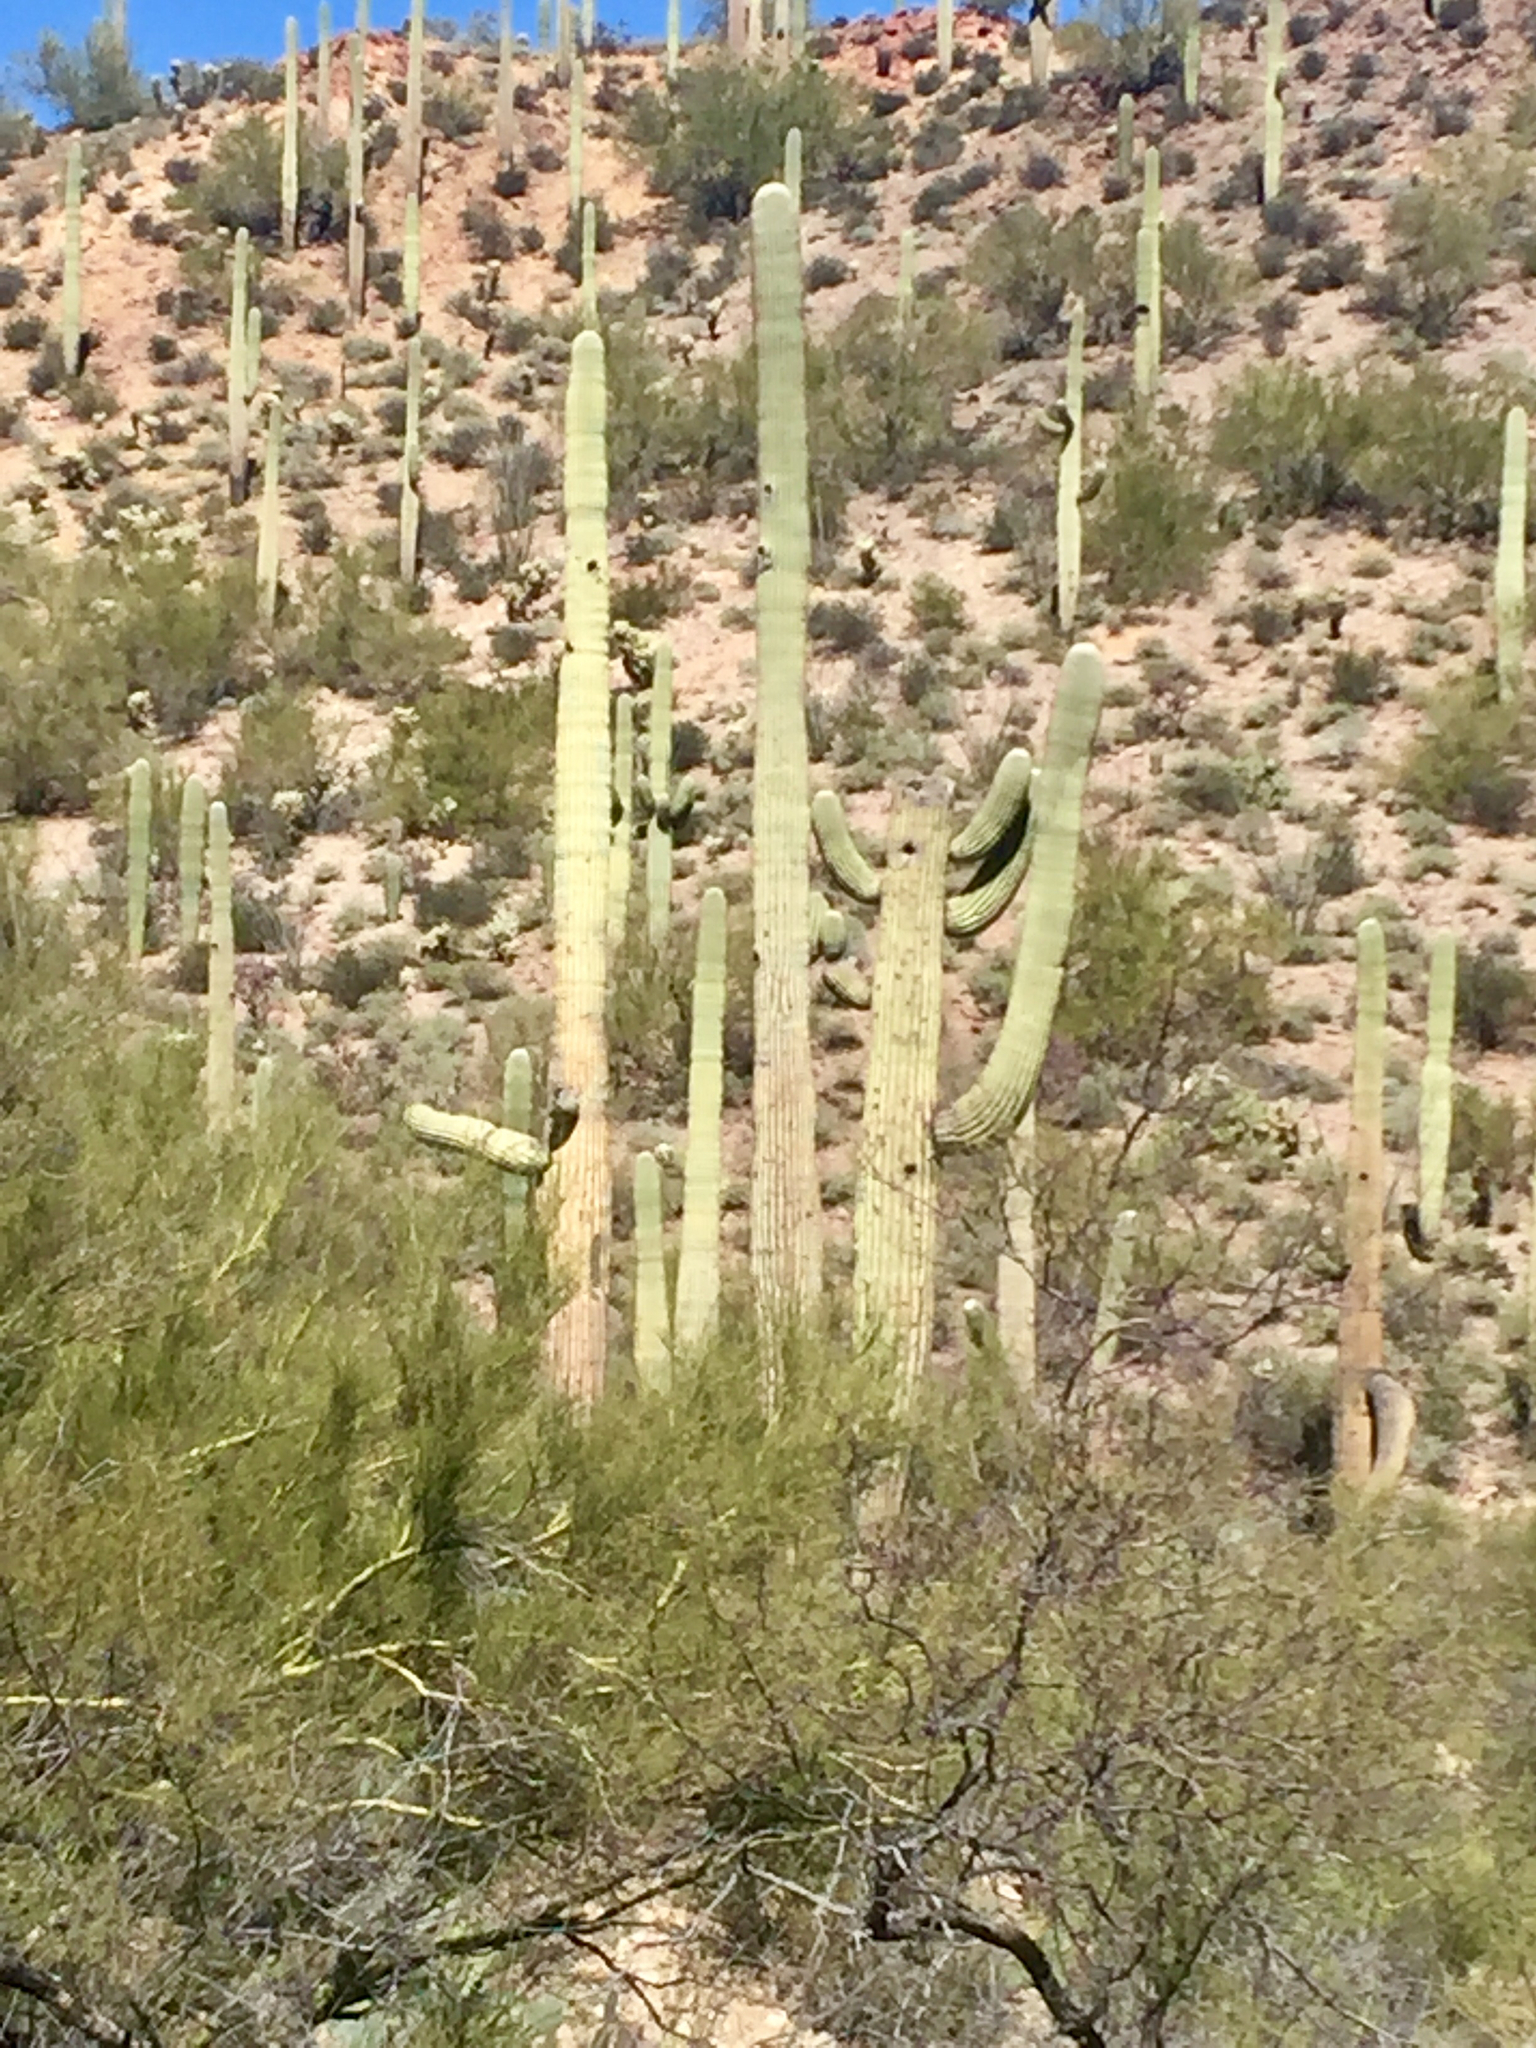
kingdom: Plantae
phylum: Tracheophyta
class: Magnoliopsida
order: Caryophyllales
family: Cactaceae
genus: Carnegiea
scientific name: Carnegiea gigantea
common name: Saguaro
